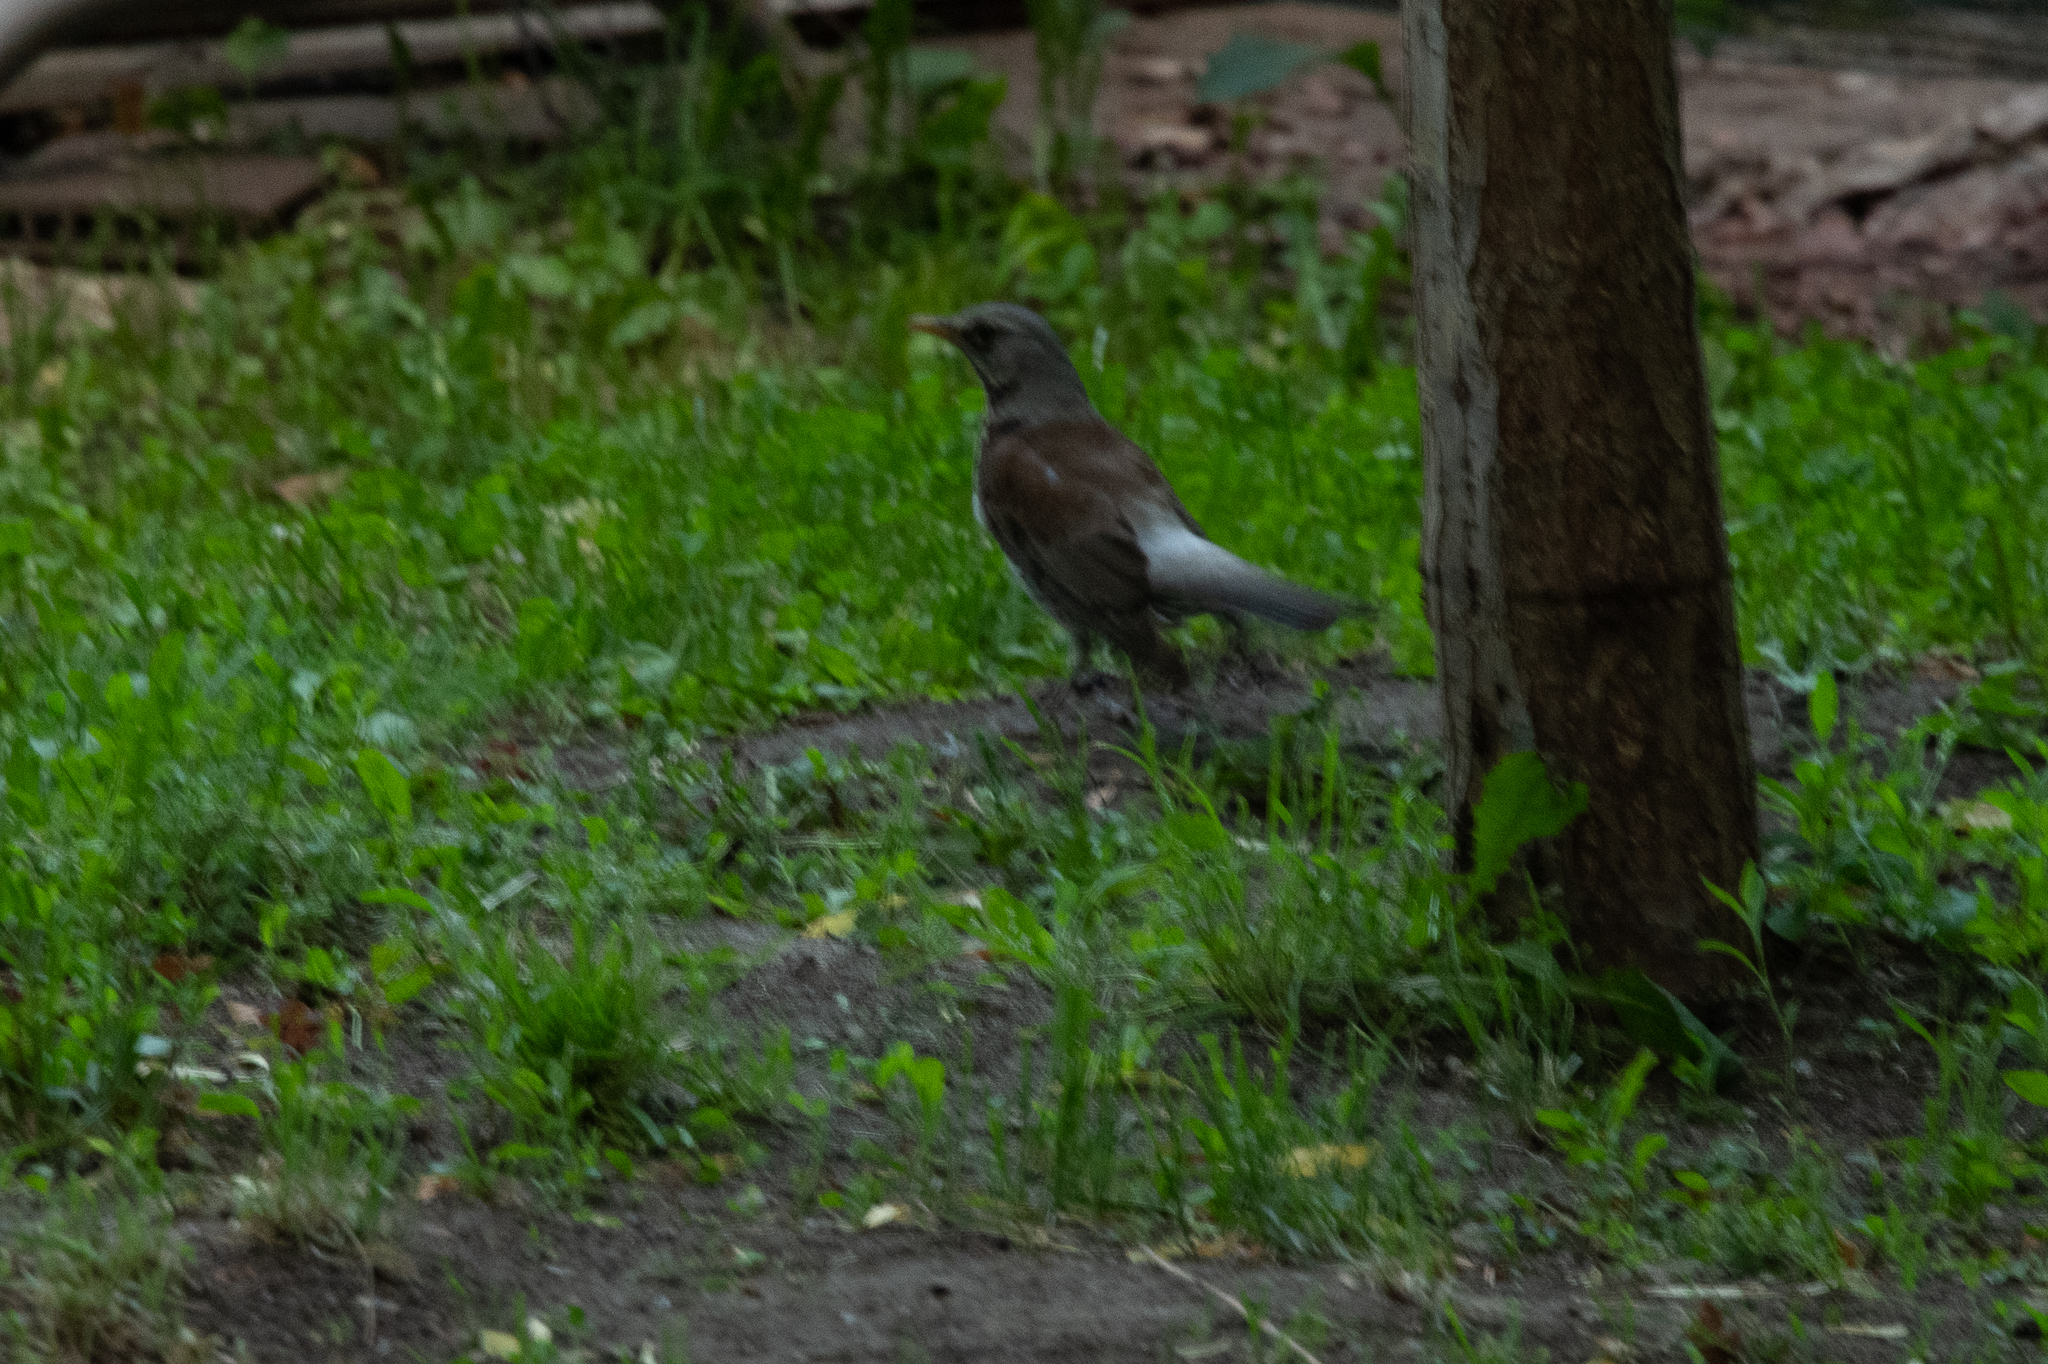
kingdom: Animalia
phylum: Chordata
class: Aves
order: Passeriformes
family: Turdidae
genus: Turdus
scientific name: Turdus pilaris
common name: Fieldfare
